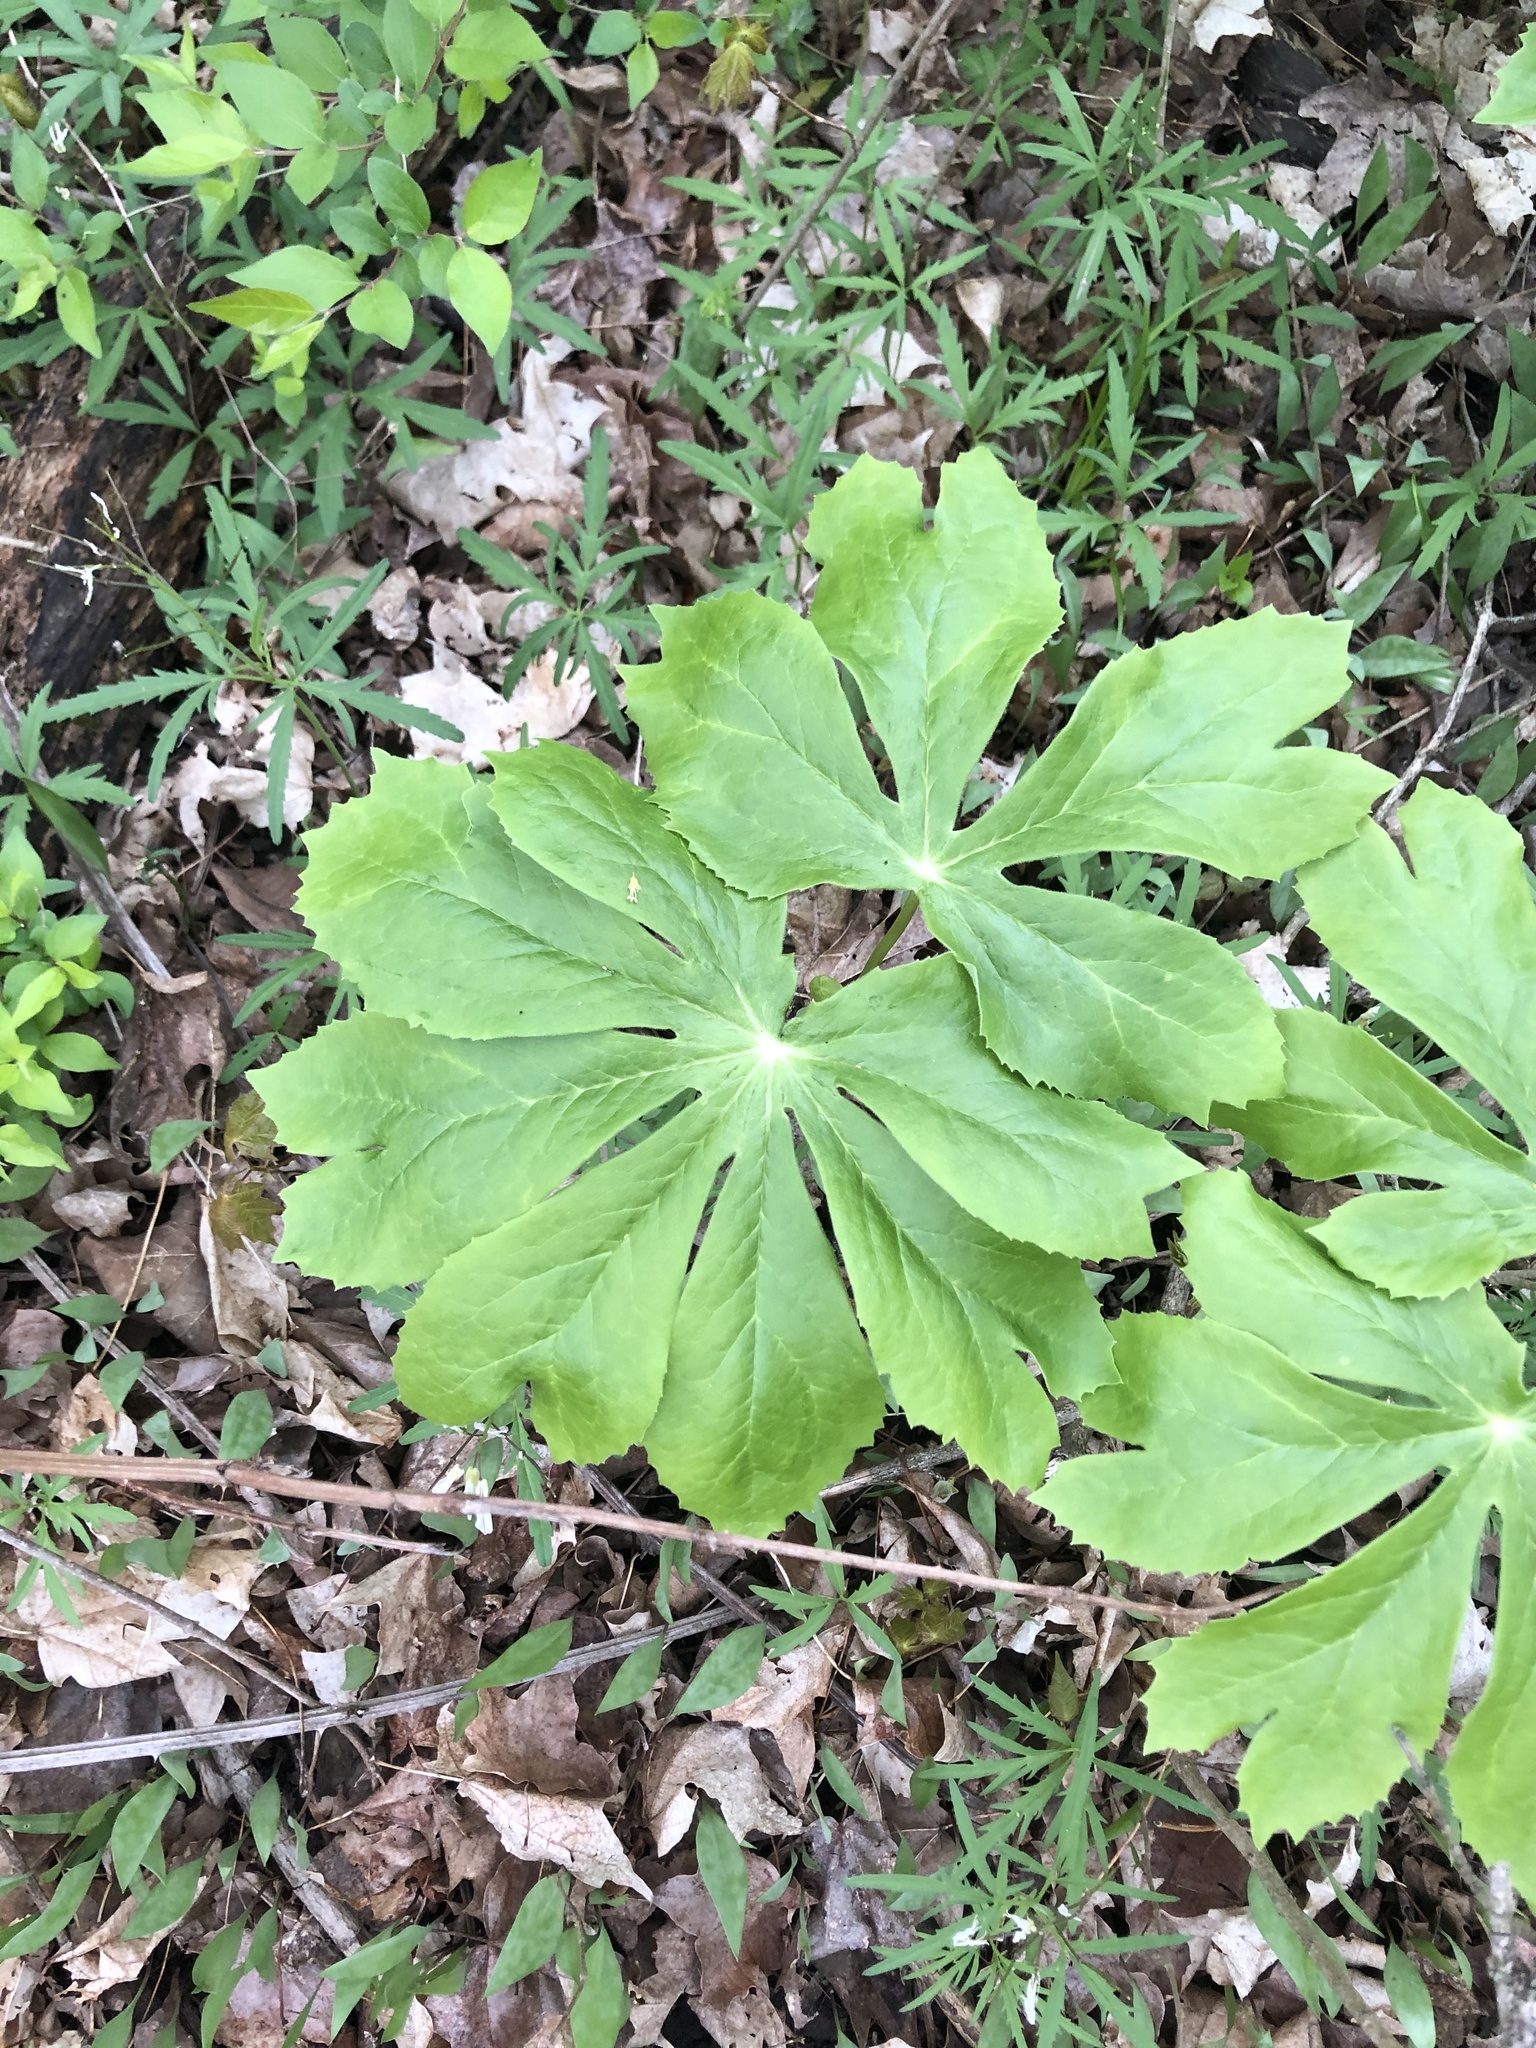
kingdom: Plantae
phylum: Tracheophyta
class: Magnoliopsida
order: Ranunculales
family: Berberidaceae
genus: Podophyllum
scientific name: Podophyllum peltatum
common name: Wild mandrake
